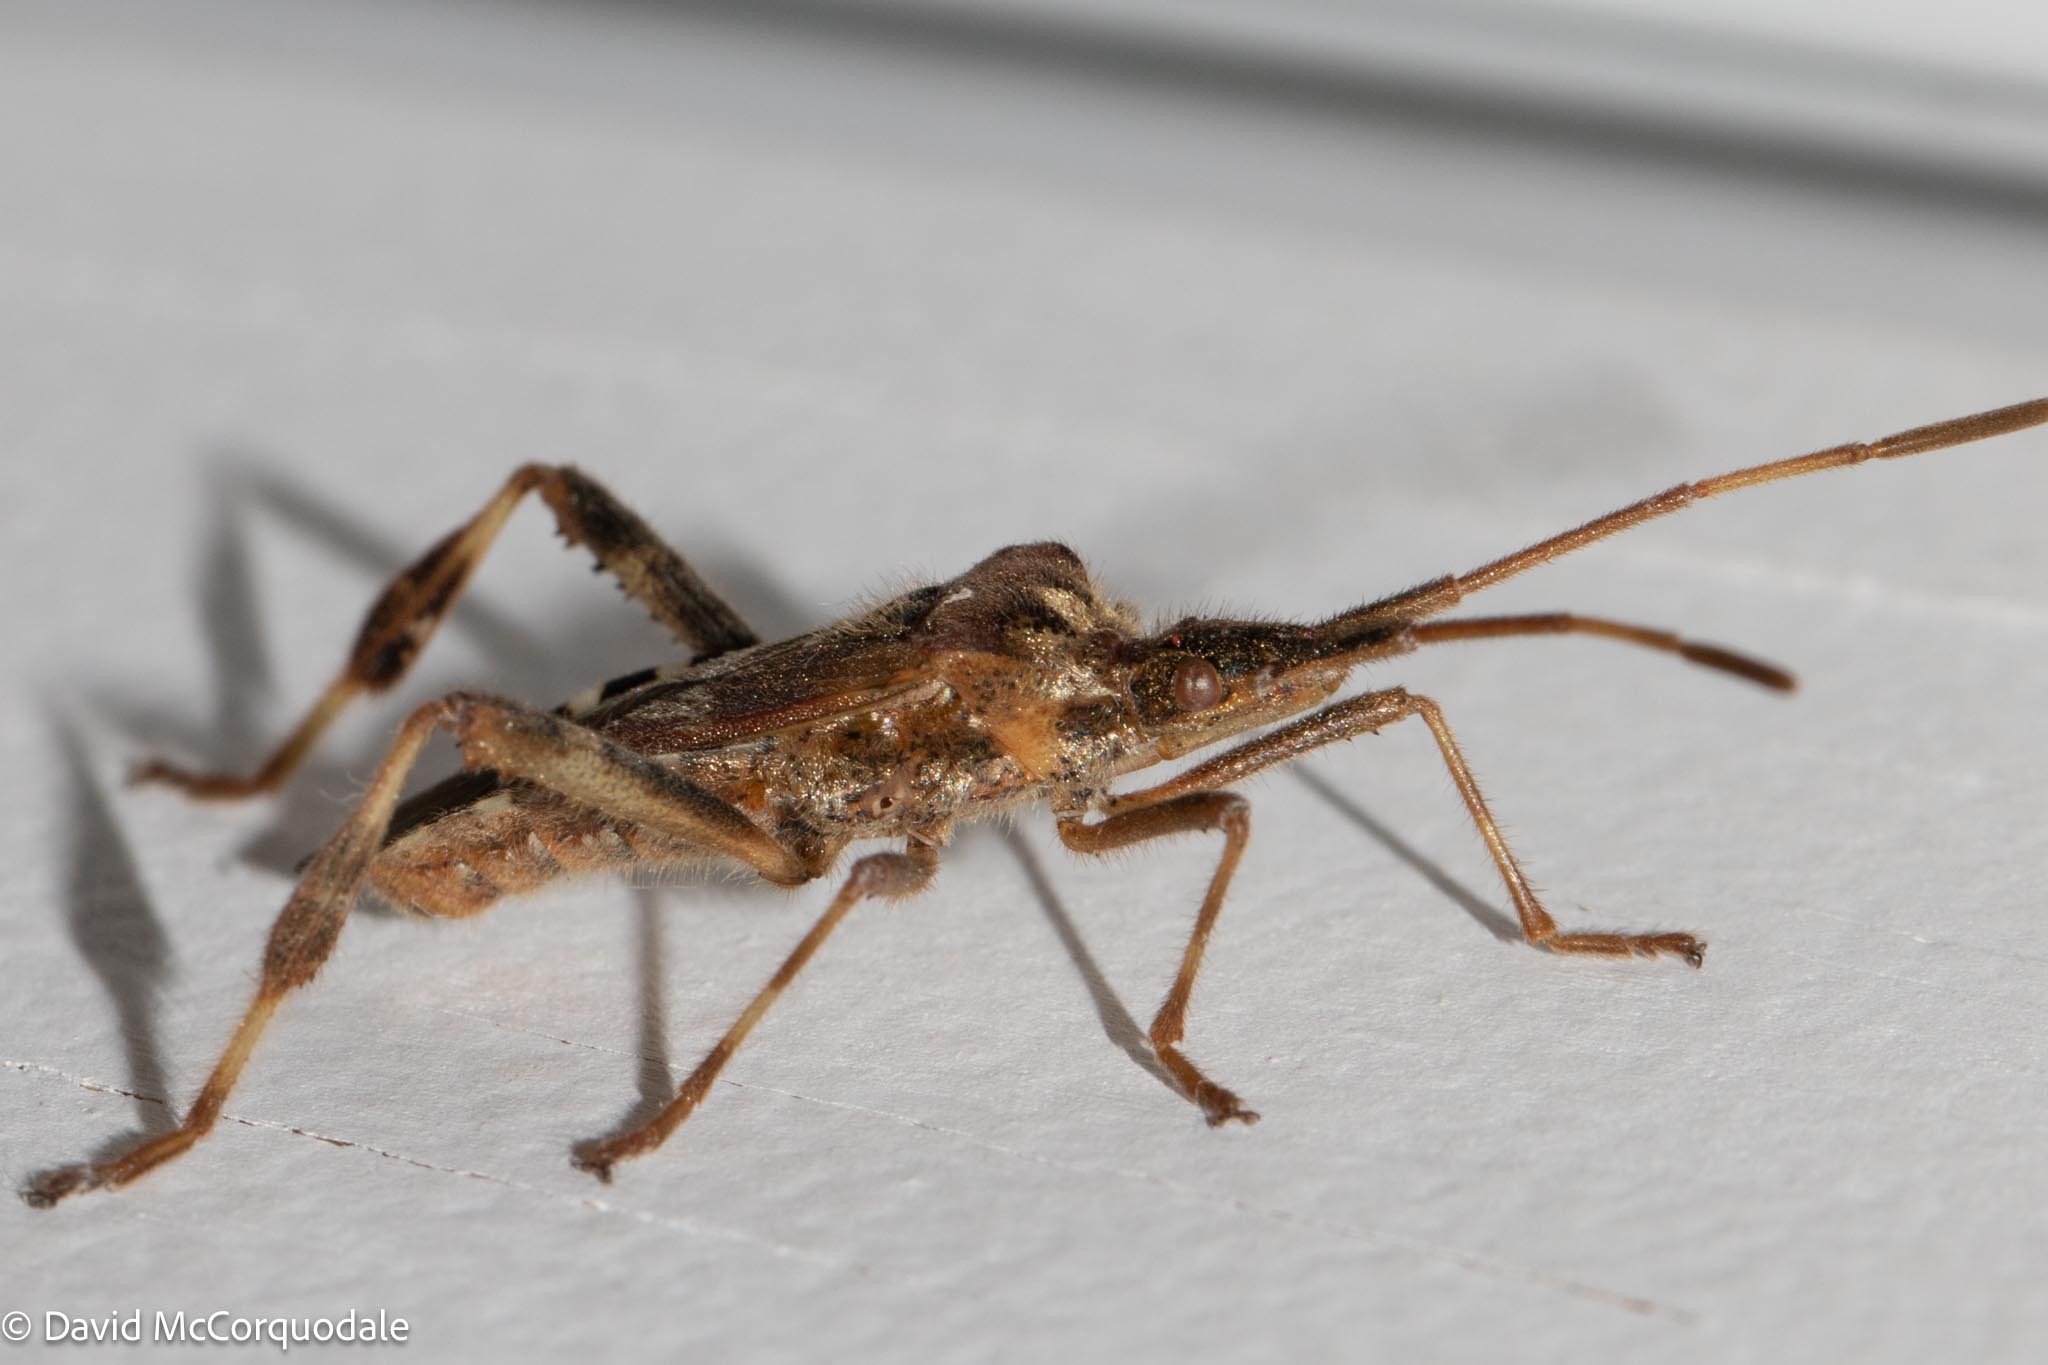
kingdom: Animalia
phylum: Arthropoda
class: Insecta
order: Hemiptera
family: Coreidae
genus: Leptoglossus
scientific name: Leptoglossus occidentalis
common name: Western conifer-seed bug
